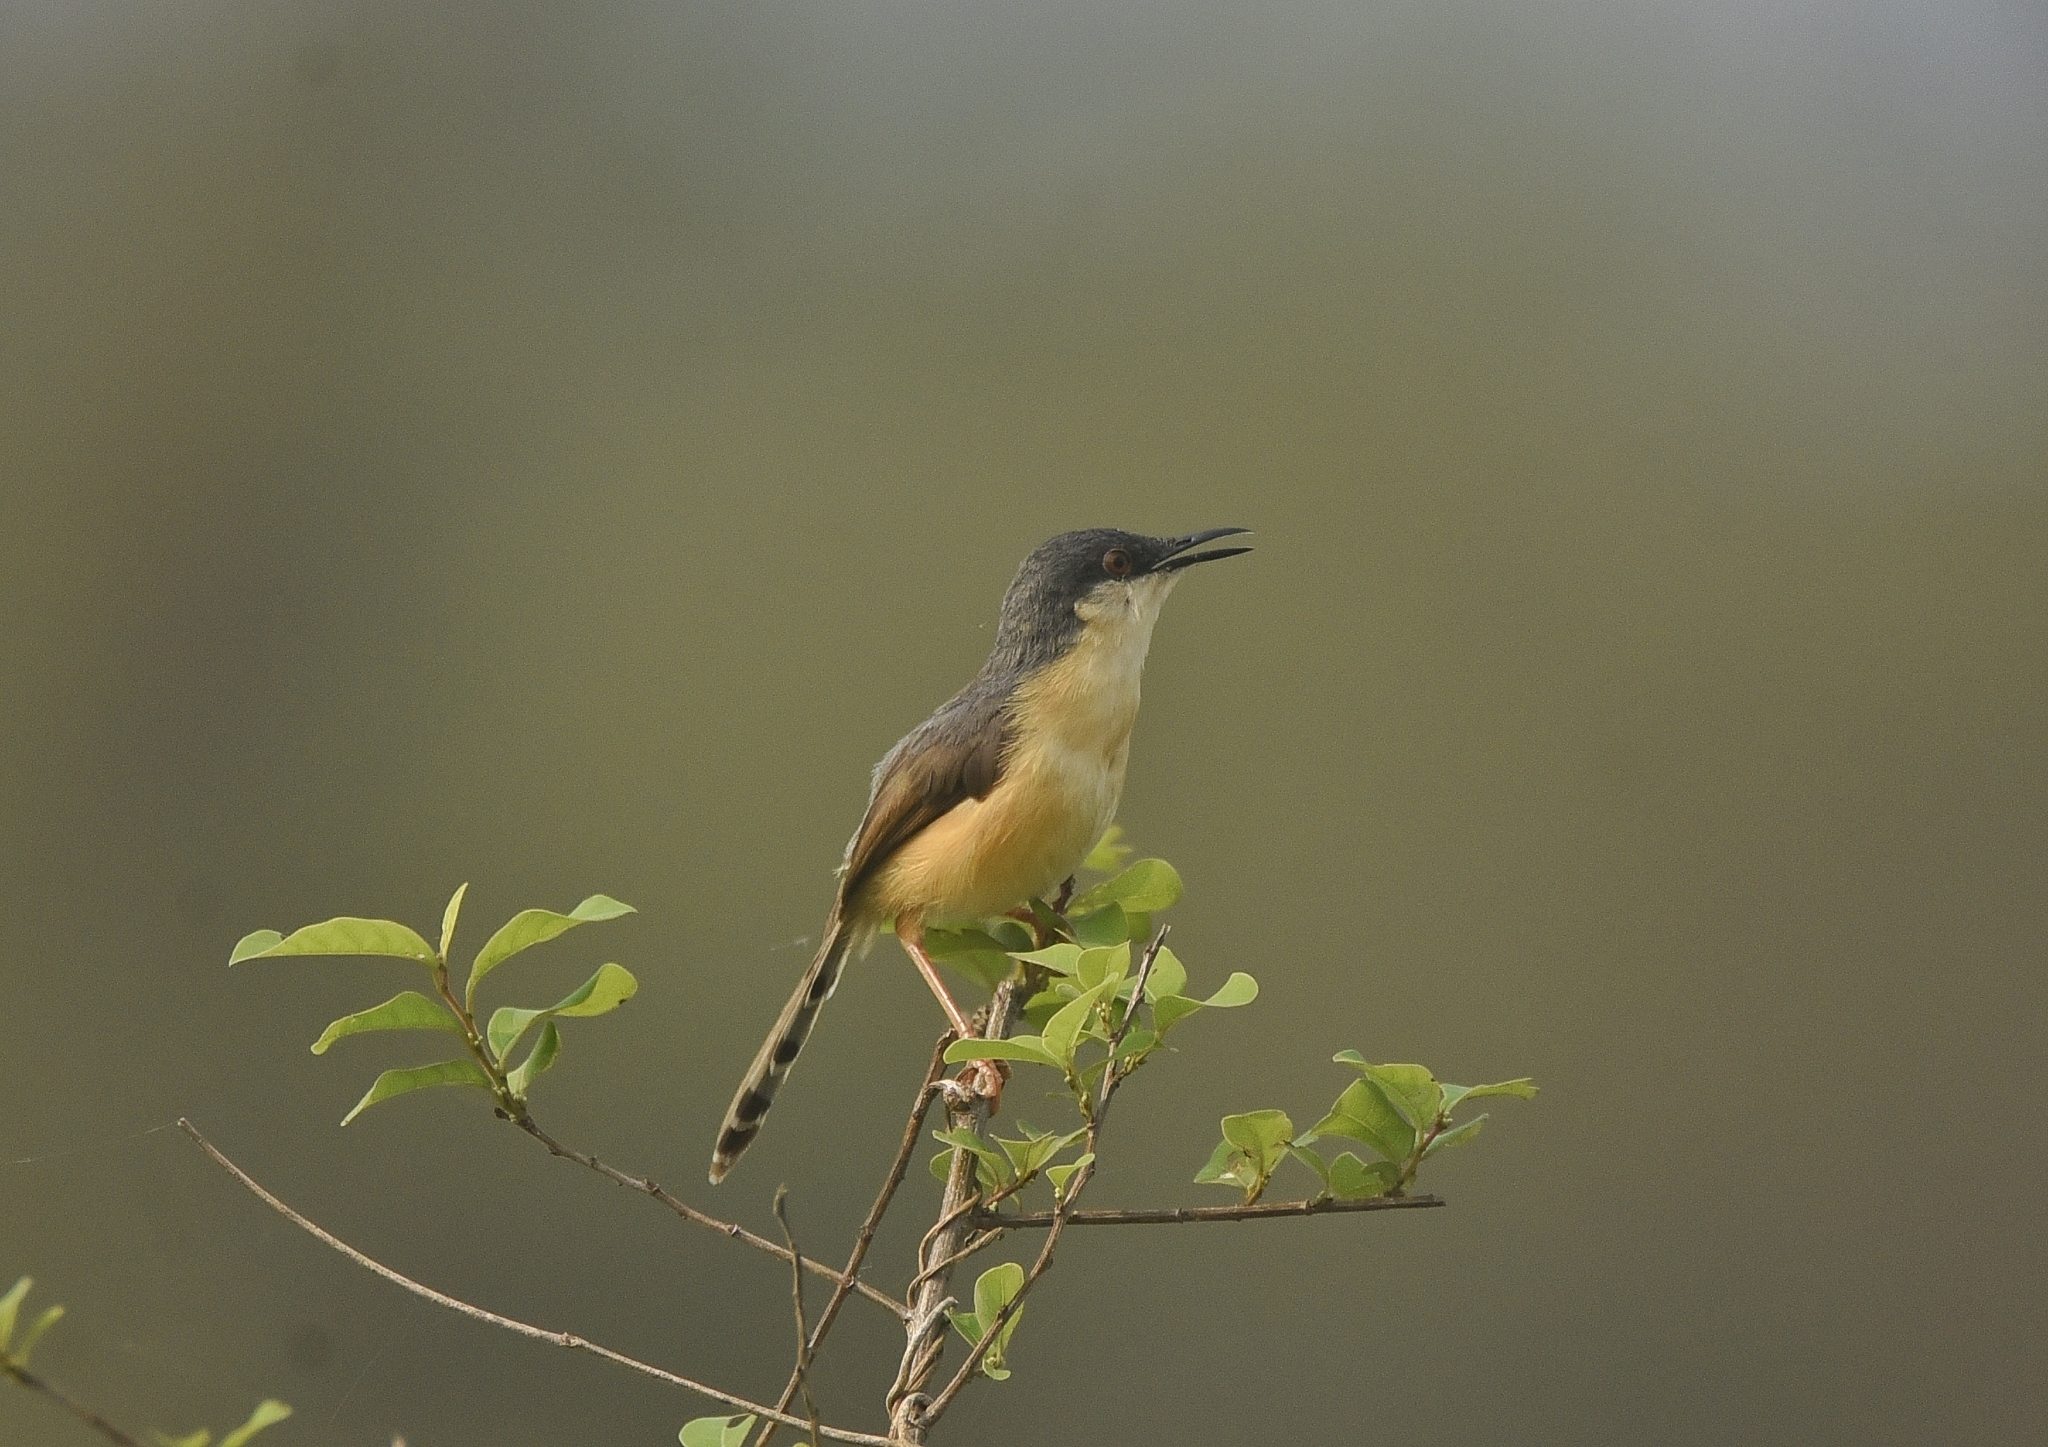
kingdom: Animalia
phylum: Chordata
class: Aves
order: Passeriformes
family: Cisticolidae
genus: Prinia
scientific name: Prinia socialis
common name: Ashy prinia
